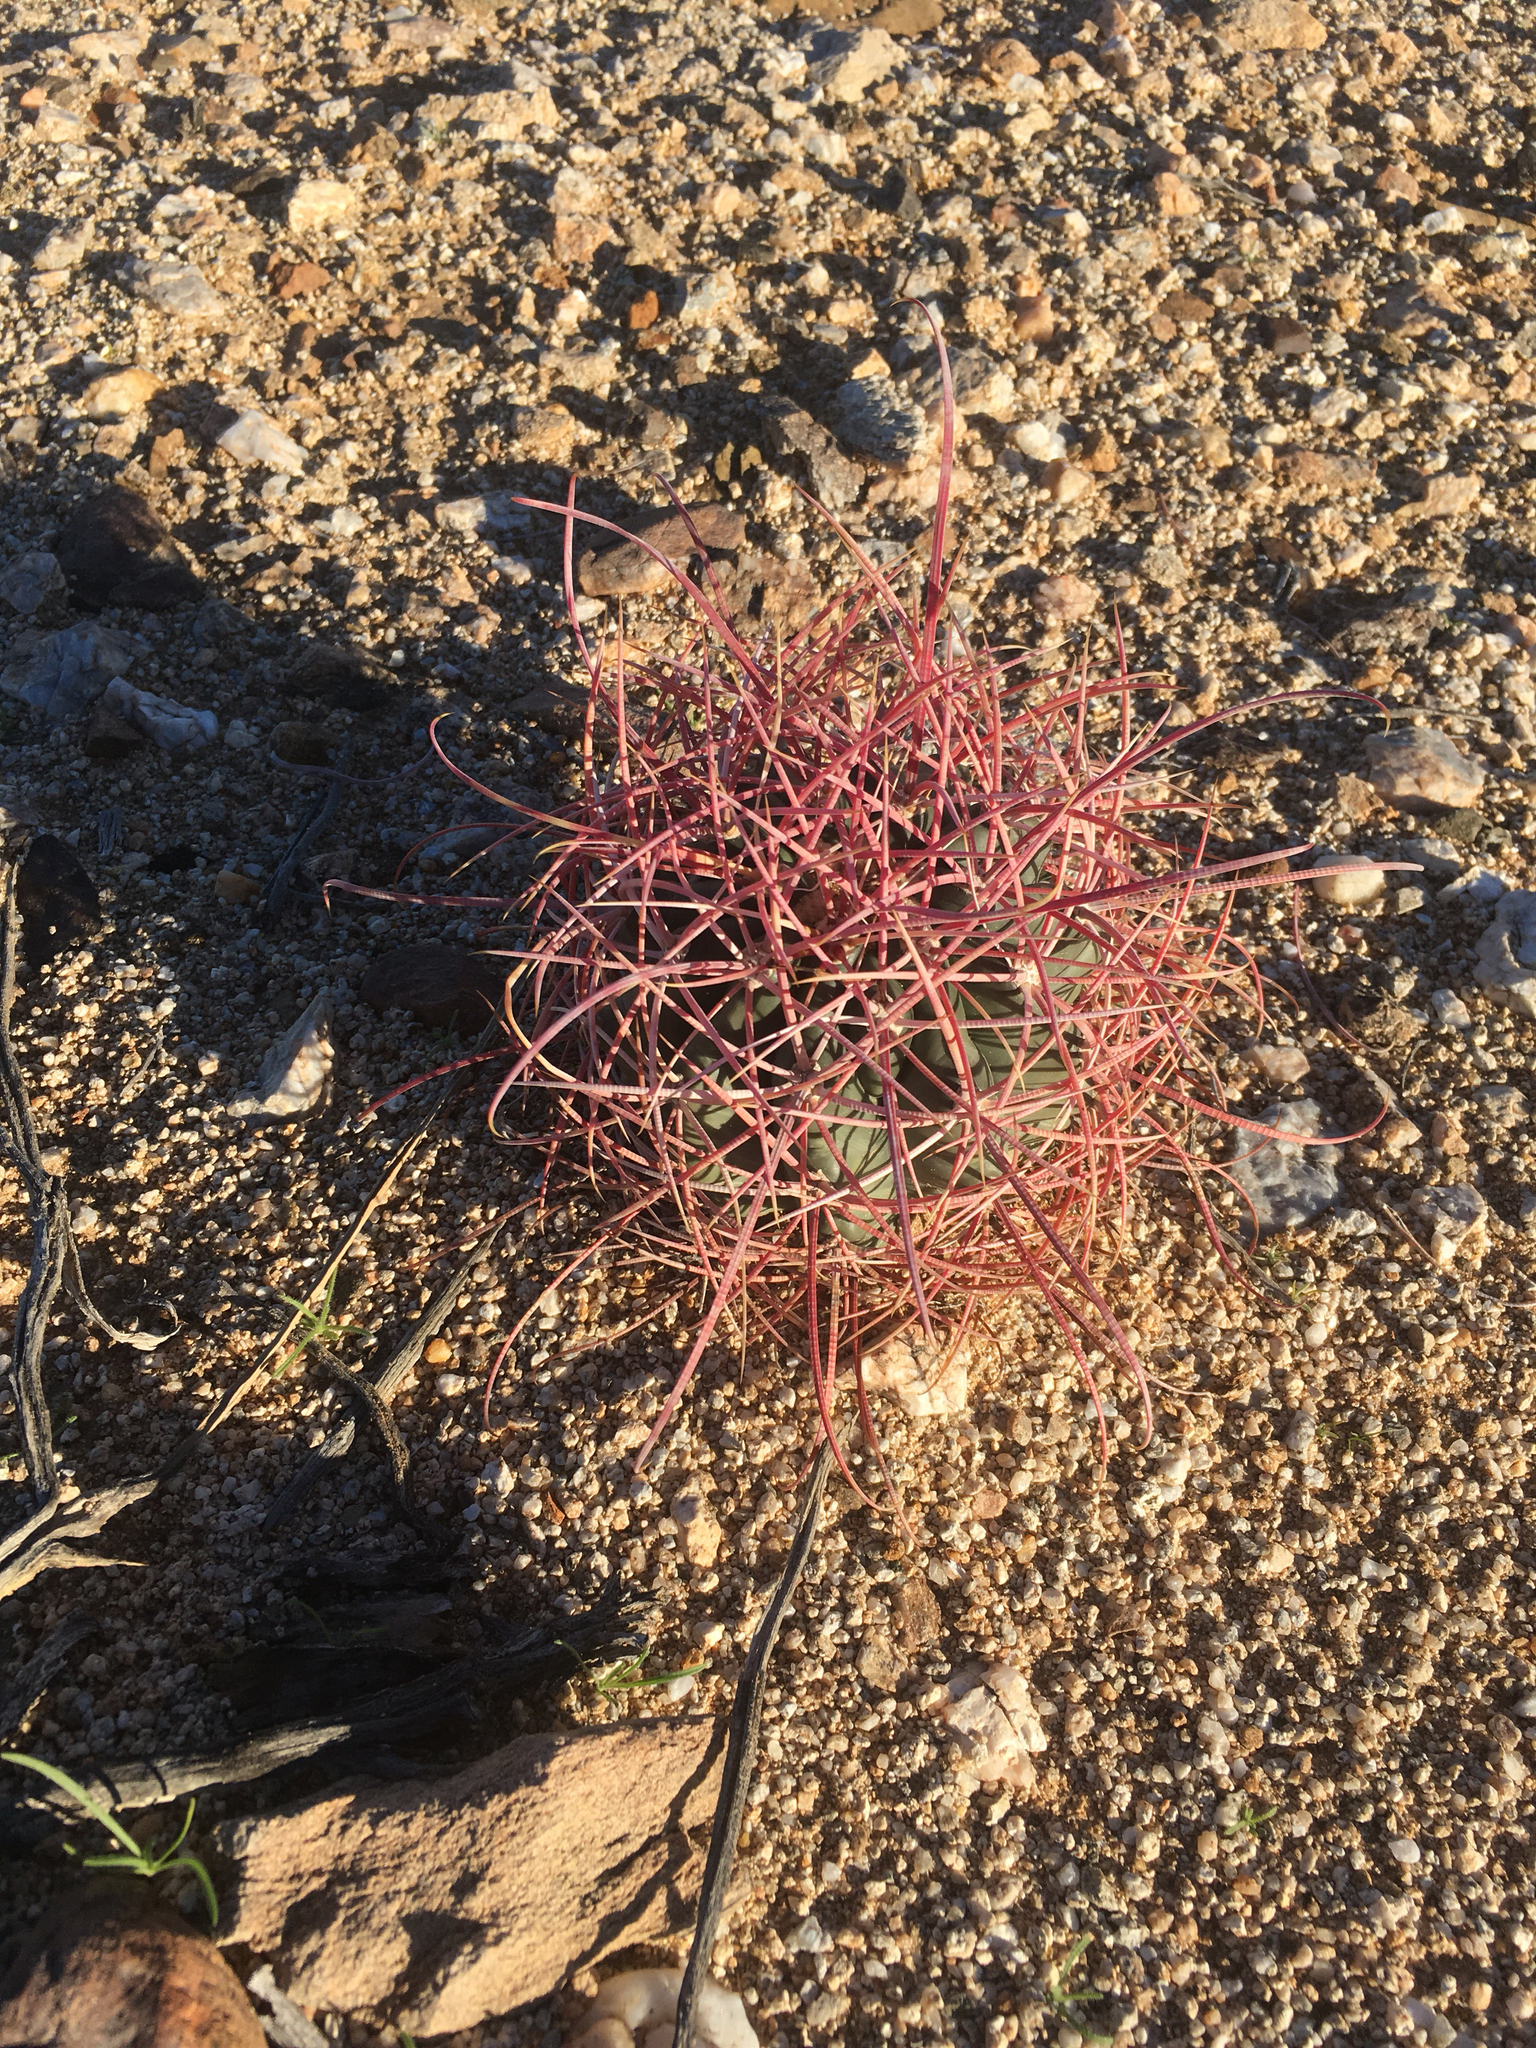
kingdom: Plantae
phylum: Tracheophyta
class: Magnoliopsida
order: Caryophyllales
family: Cactaceae
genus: Ferocactus
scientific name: Ferocactus cylindraceus
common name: California barrel cactus
